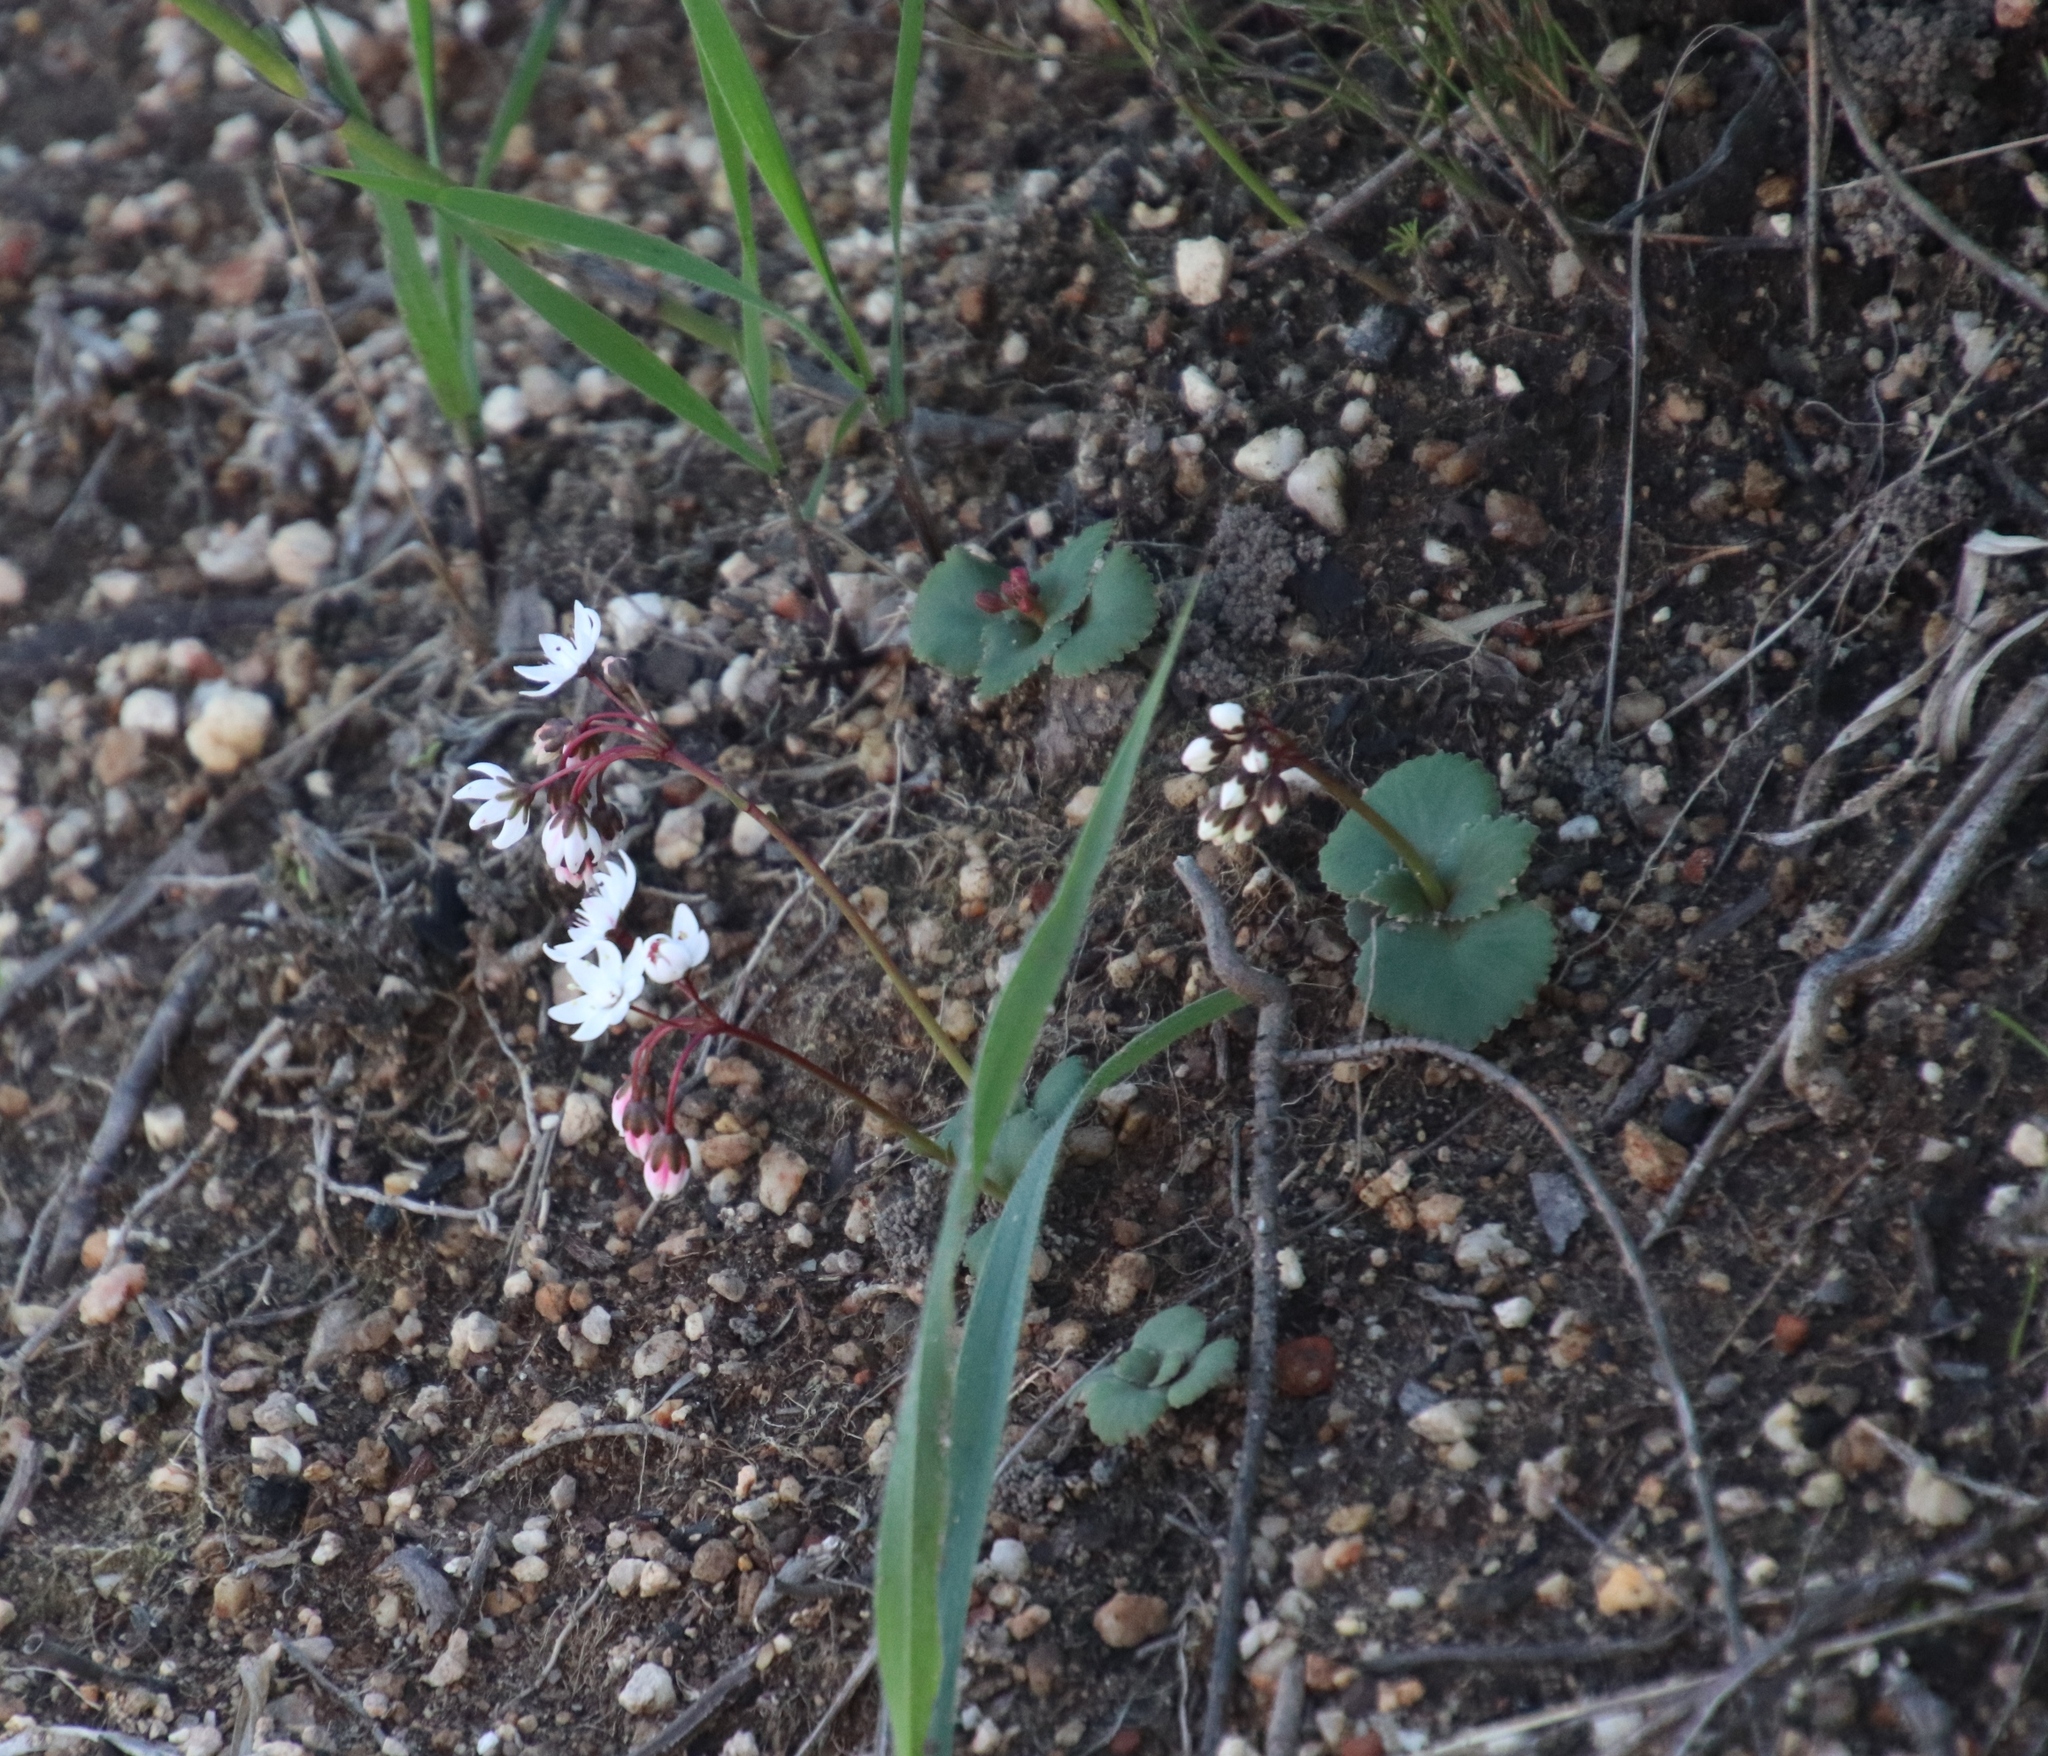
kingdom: Plantae
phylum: Tracheophyta
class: Magnoliopsida
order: Saxifragales
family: Crassulaceae
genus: Crassula
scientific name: Crassula capensis
